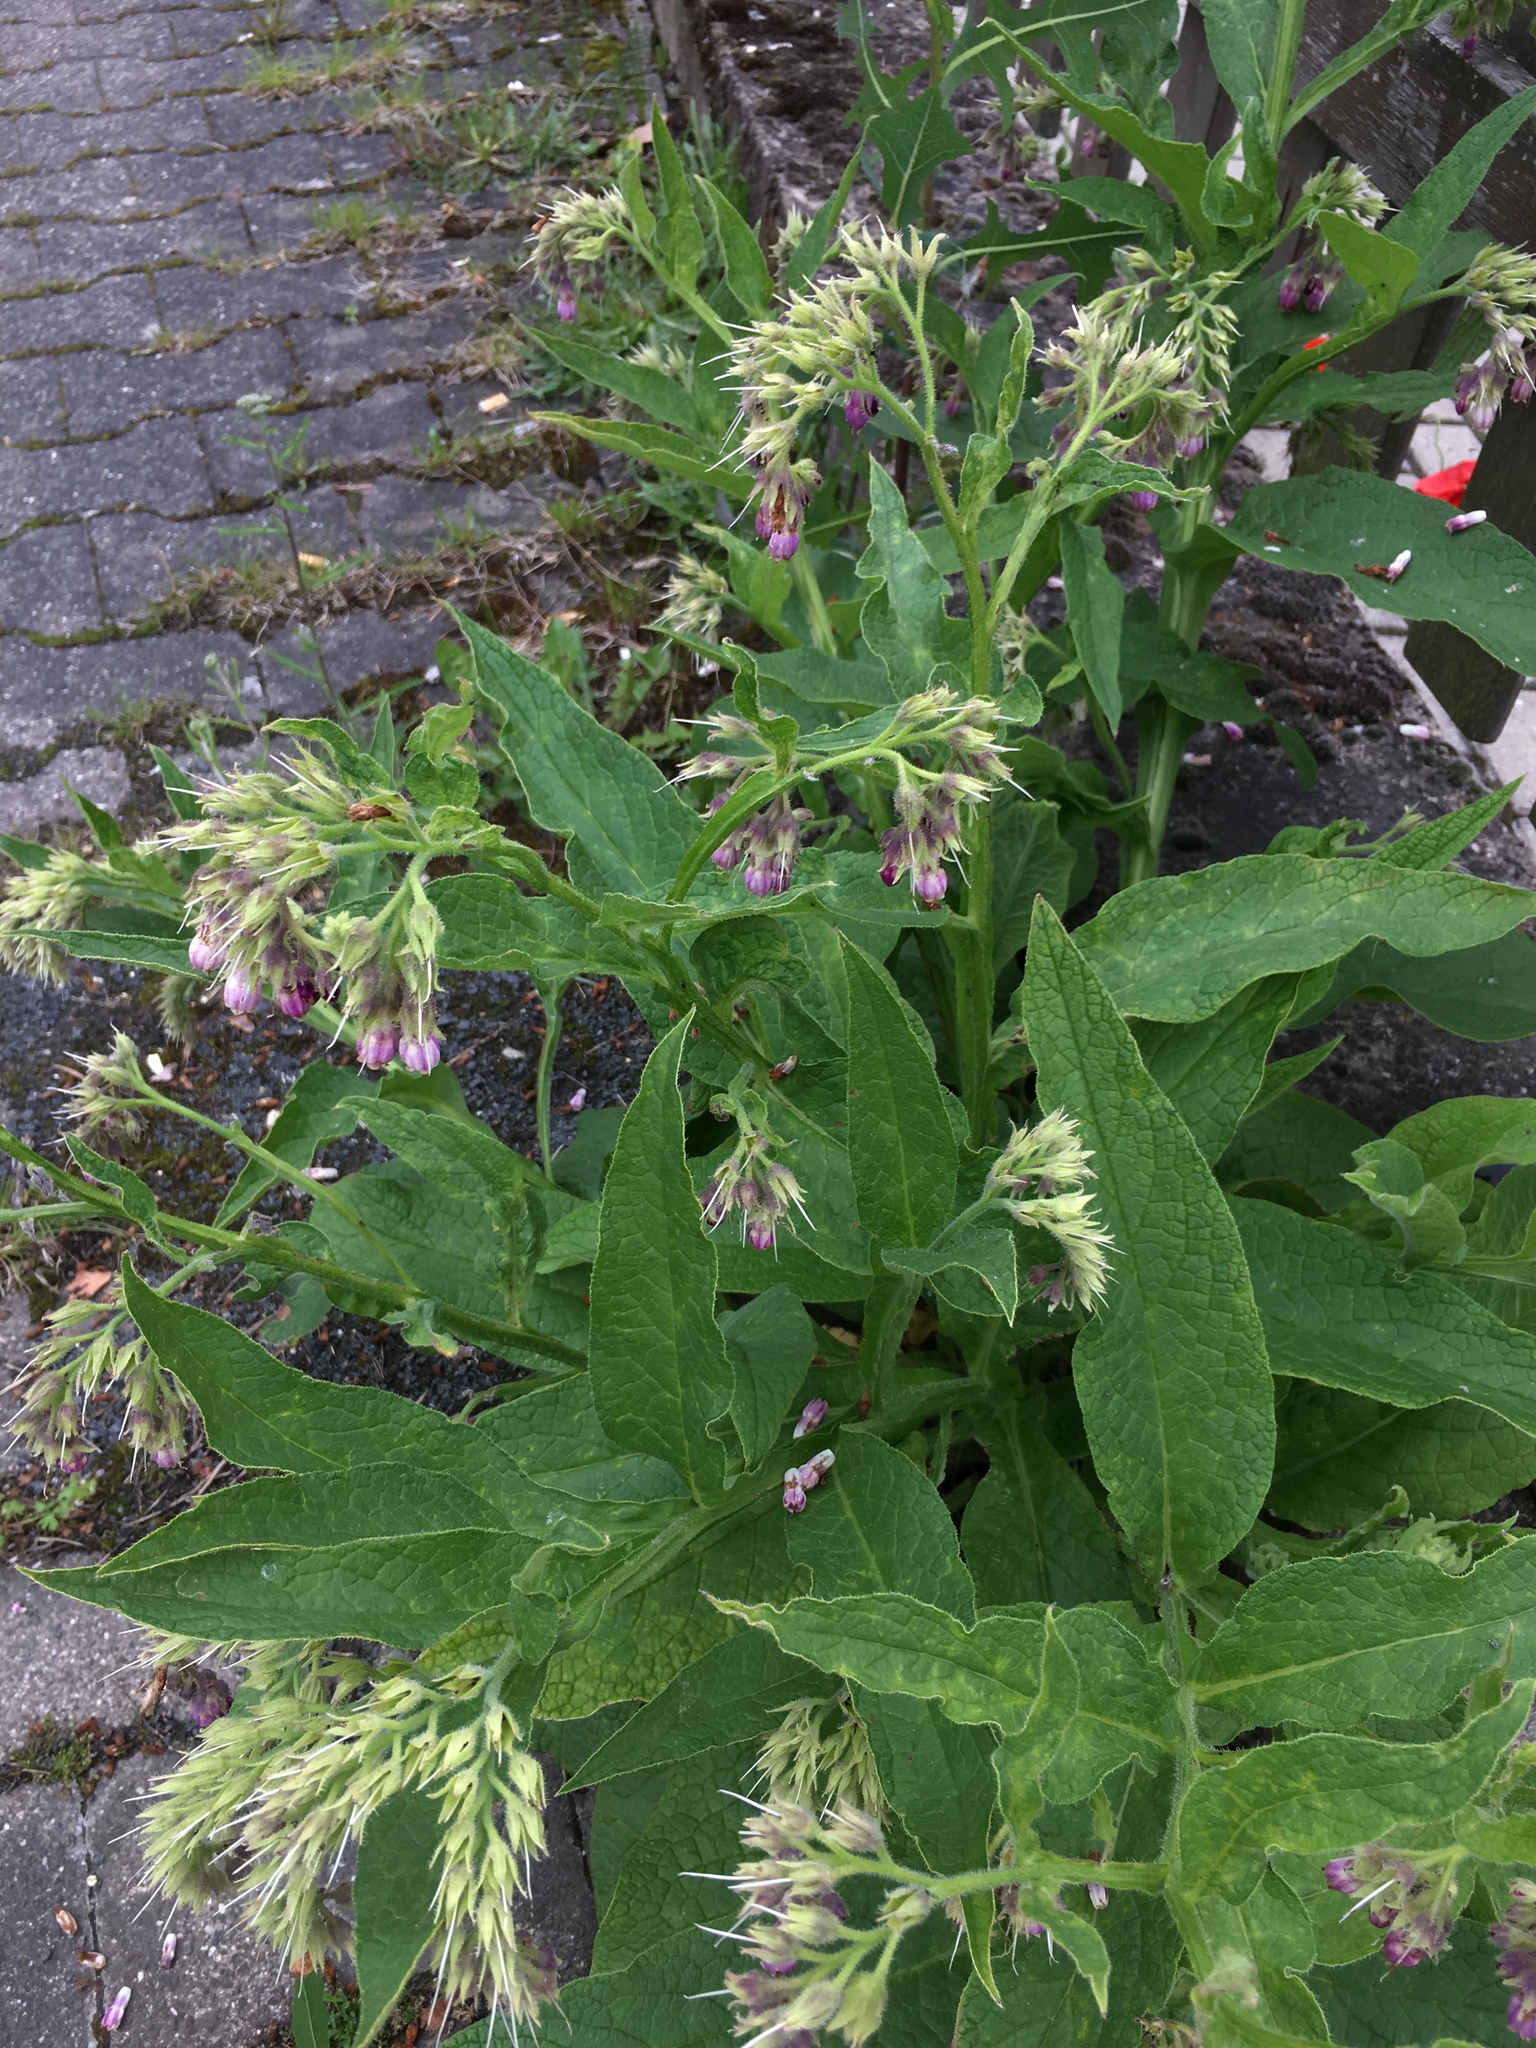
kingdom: Plantae
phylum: Tracheophyta
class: Magnoliopsida
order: Boraginales
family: Boraginaceae
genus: Symphytum
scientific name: Symphytum officinale
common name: Common comfrey
